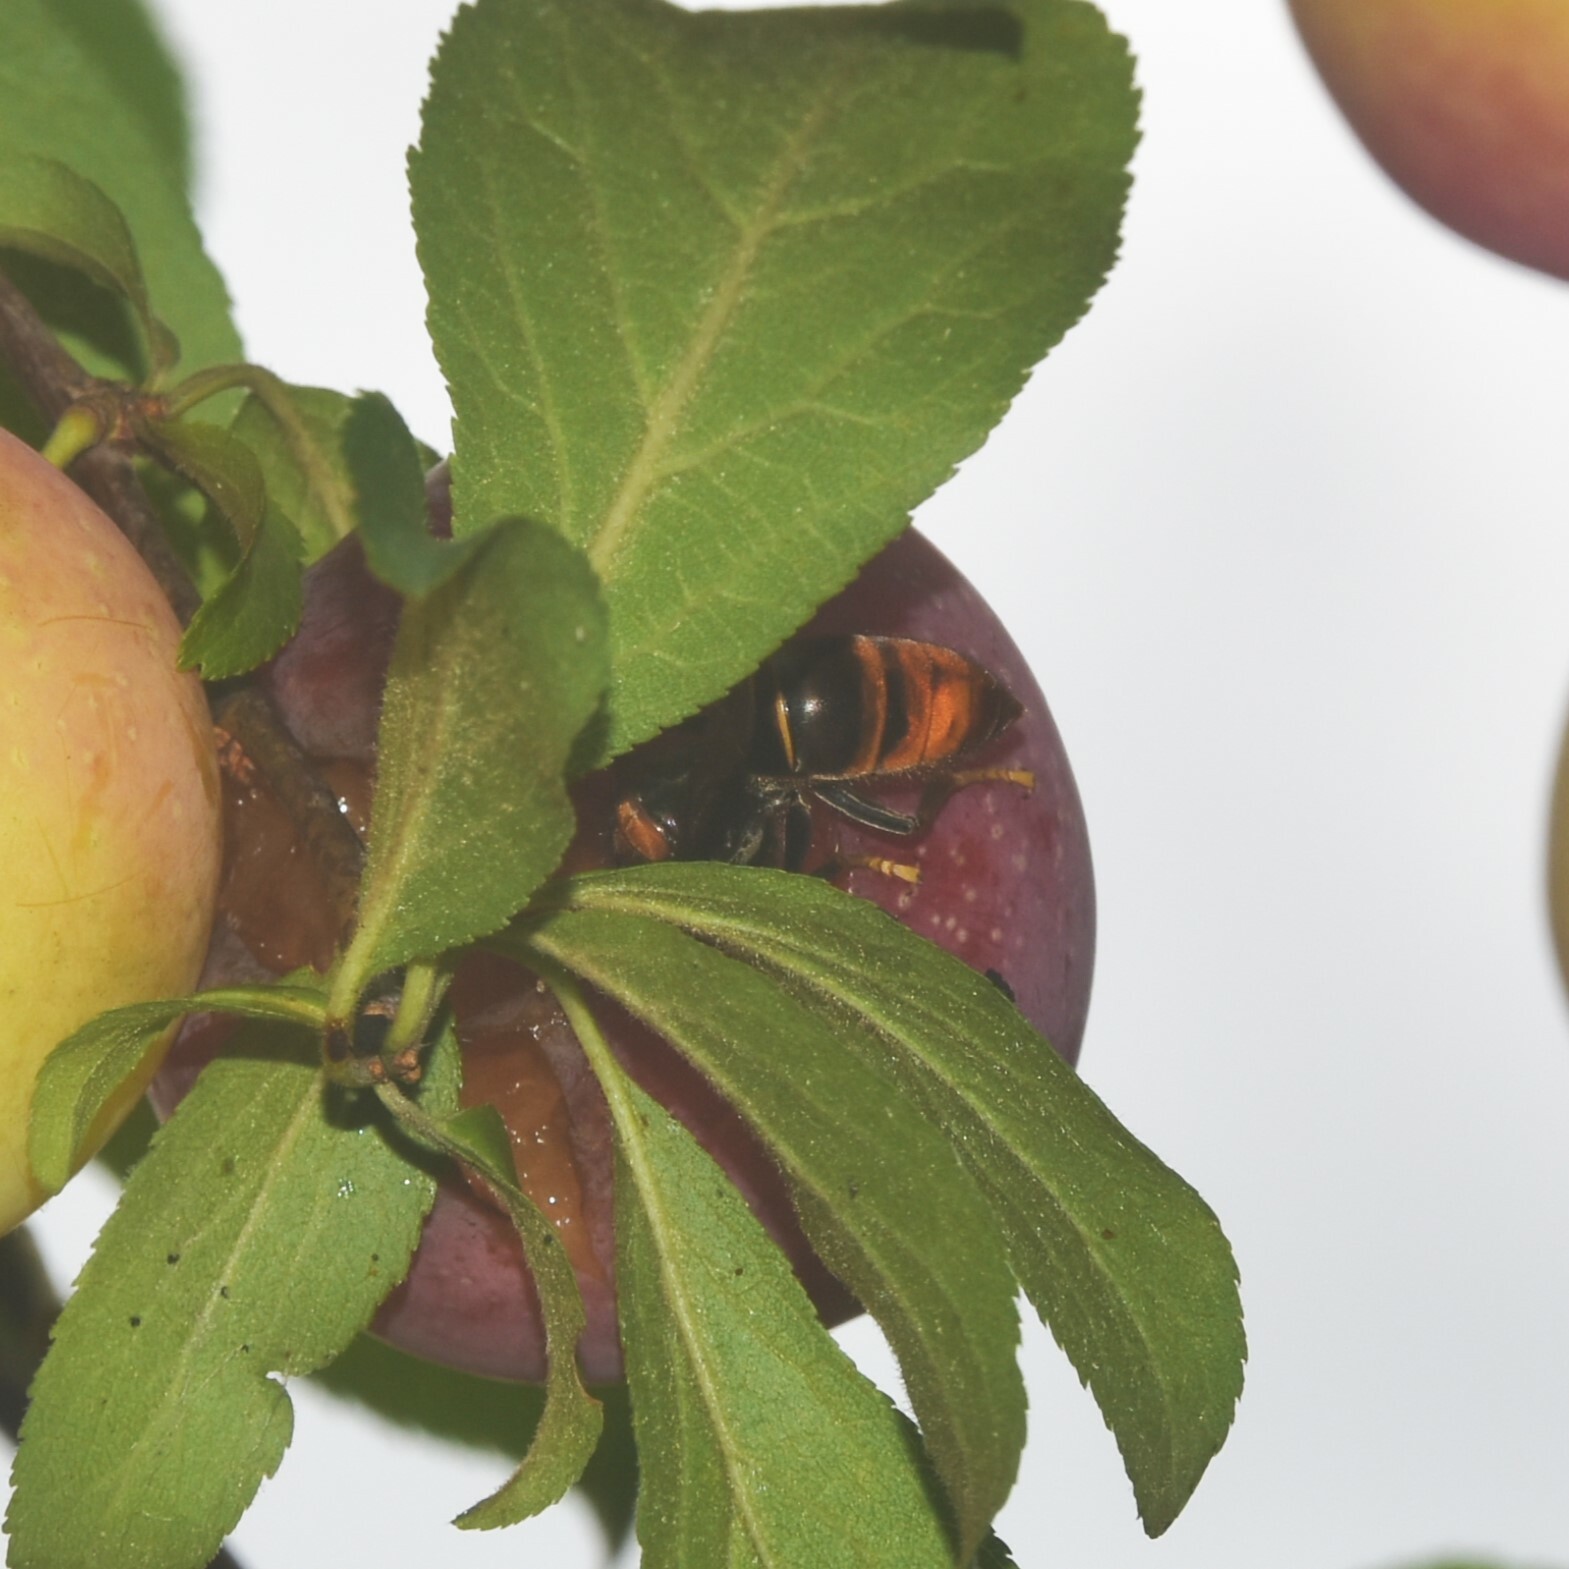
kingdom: Animalia
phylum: Arthropoda
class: Insecta
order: Hymenoptera
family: Vespidae
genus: Vespa
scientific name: Vespa velutina
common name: Asian hornet
